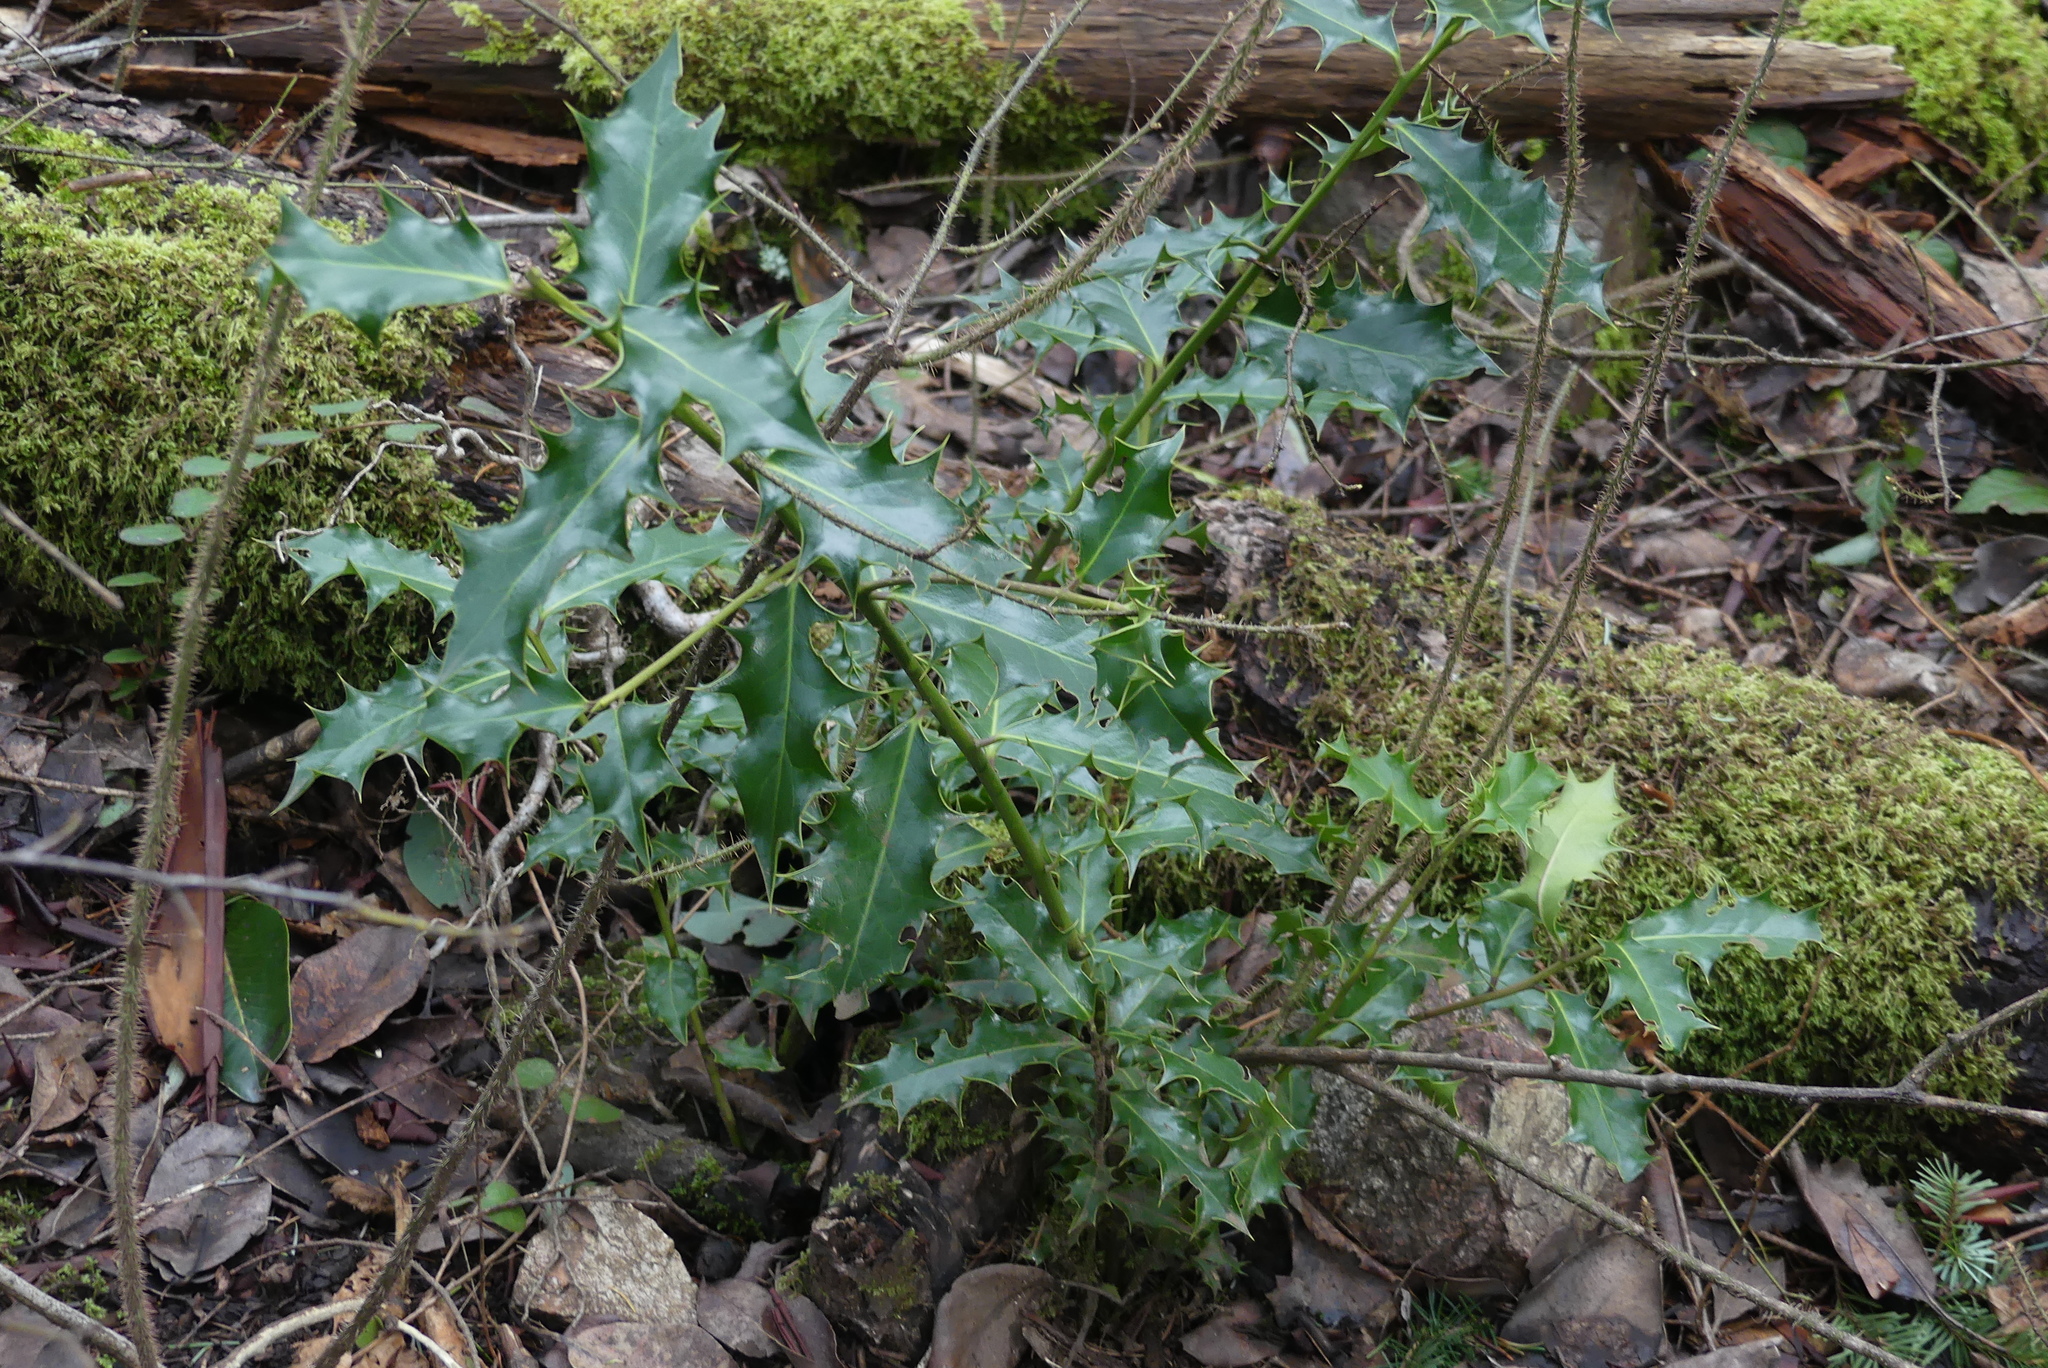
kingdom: Plantae
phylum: Tracheophyta
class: Magnoliopsida
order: Aquifoliales
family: Aquifoliaceae
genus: Ilex
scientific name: Ilex aquifolium
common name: English holly
